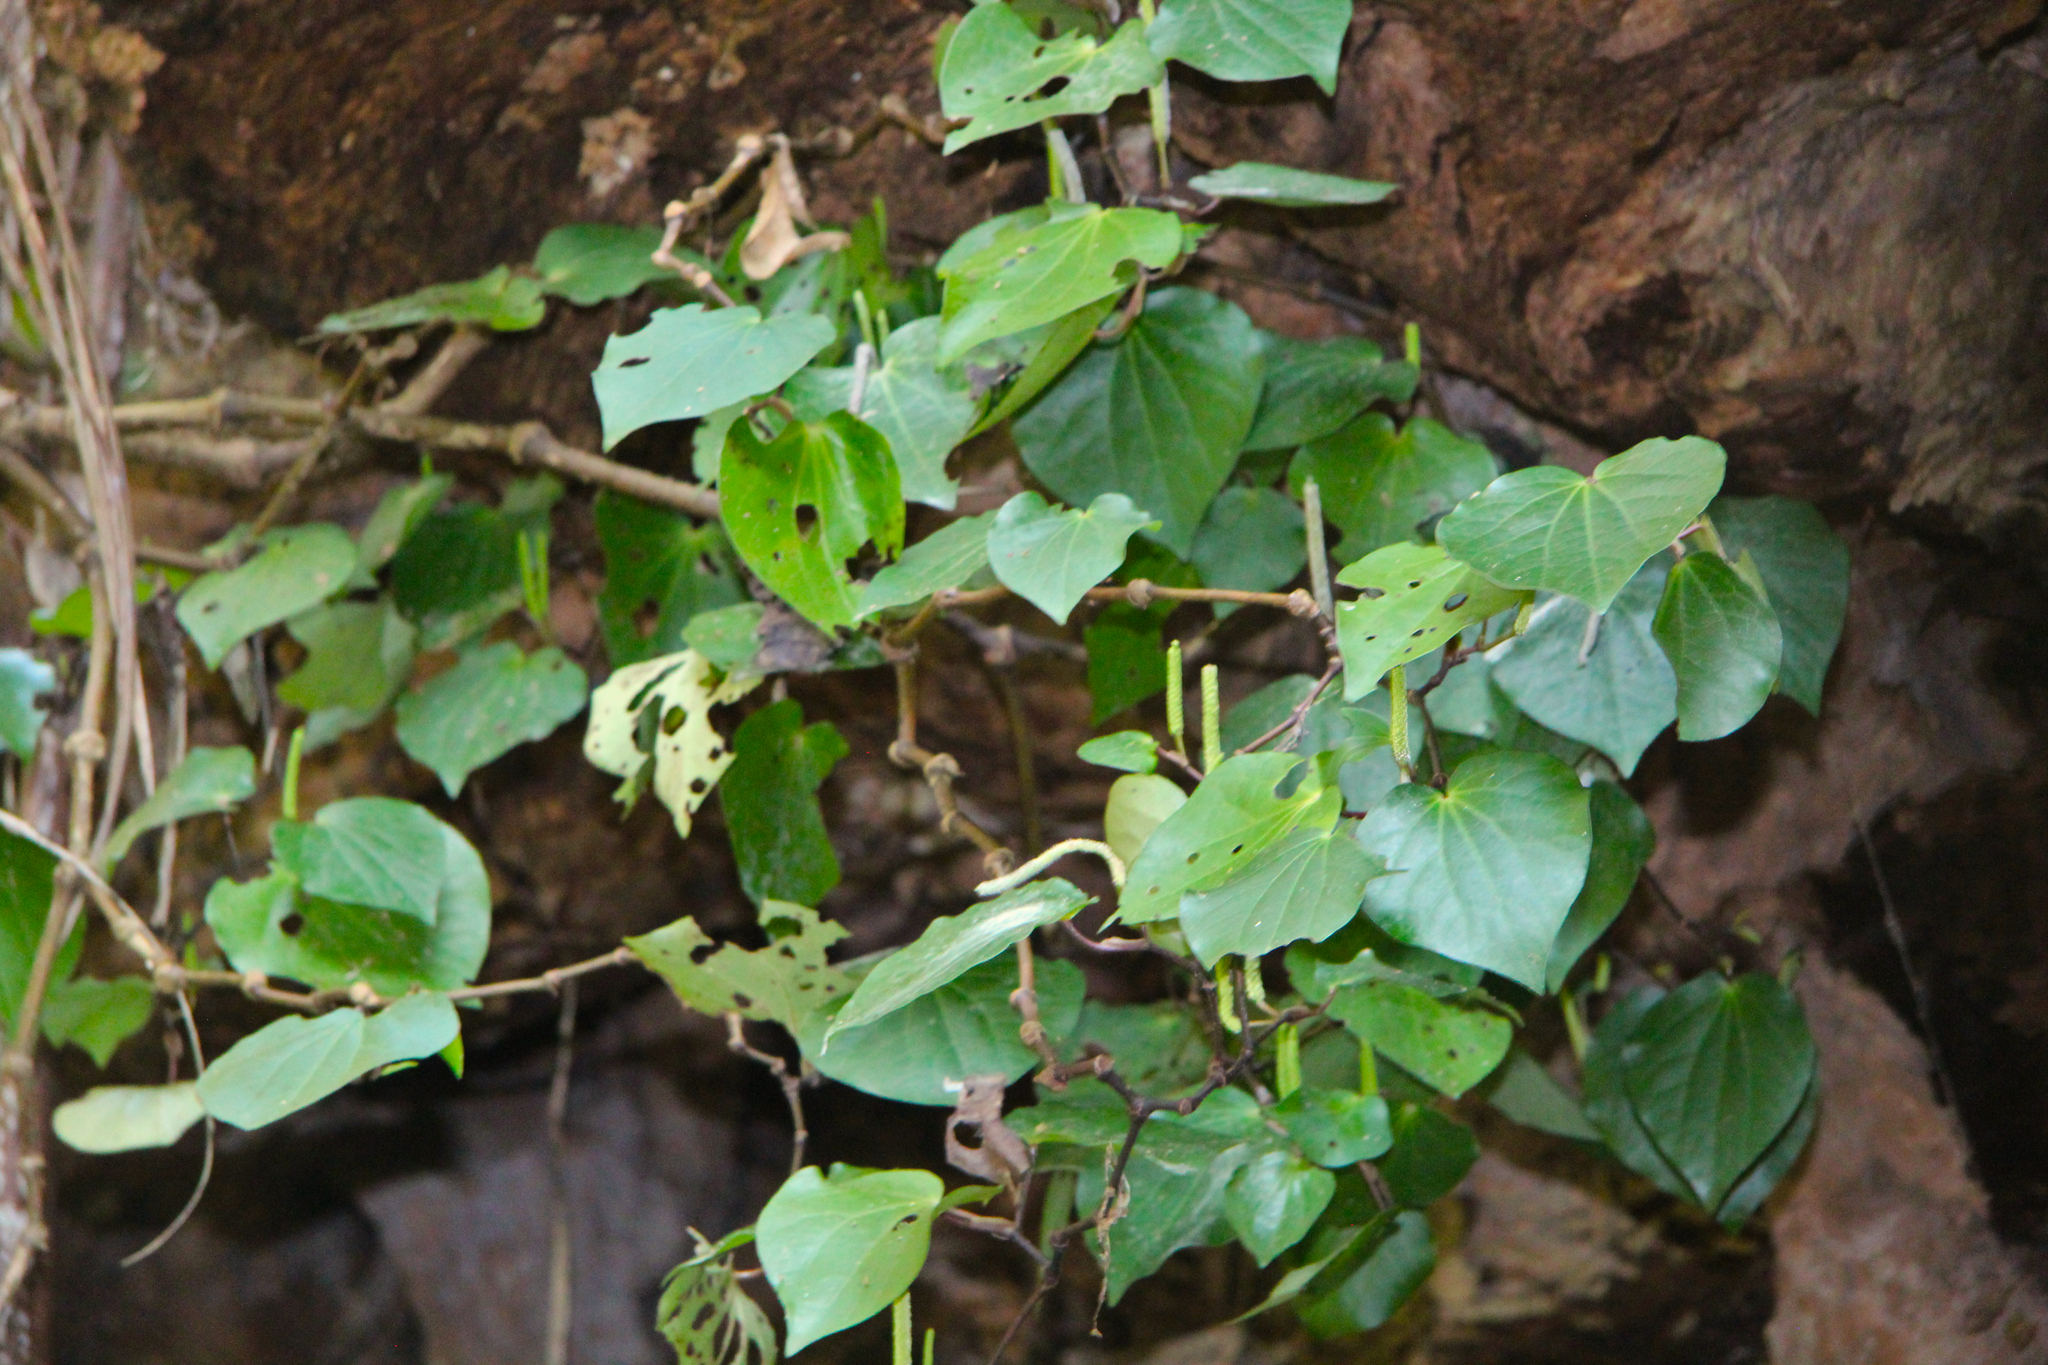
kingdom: Plantae
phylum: Tracheophyta
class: Magnoliopsida
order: Piperales
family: Piperaceae
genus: Macropiper
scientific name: Macropiper excelsum
